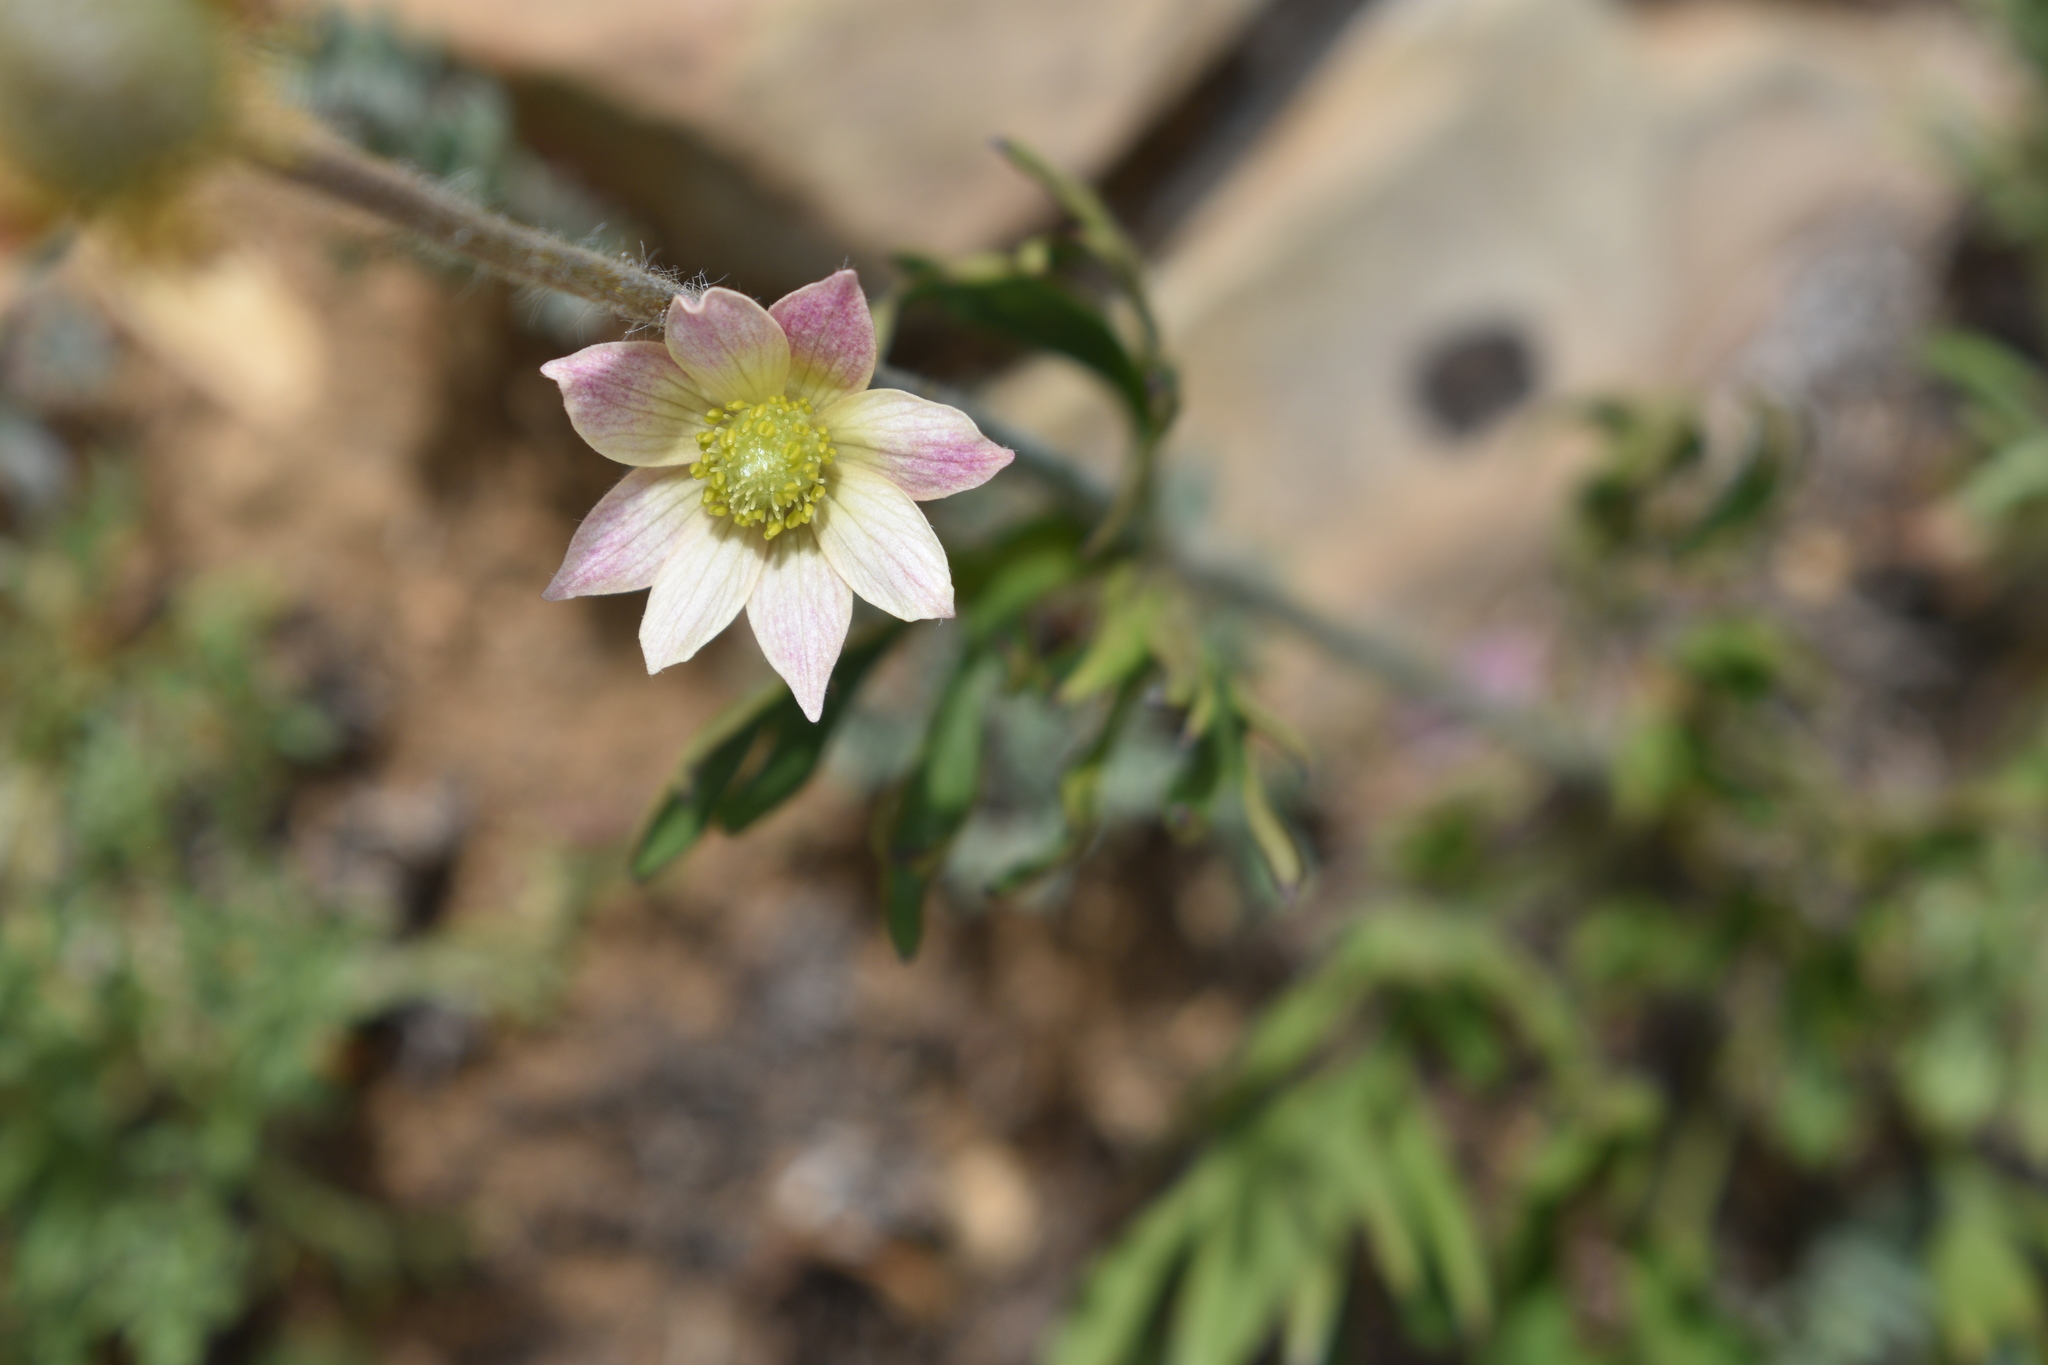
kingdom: Plantae
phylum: Tracheophyta
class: Magnoliopsida
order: Ranunculales
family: Ranunculaceae
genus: Anemone
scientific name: Anemone multifida
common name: Bird's-foot anemone
